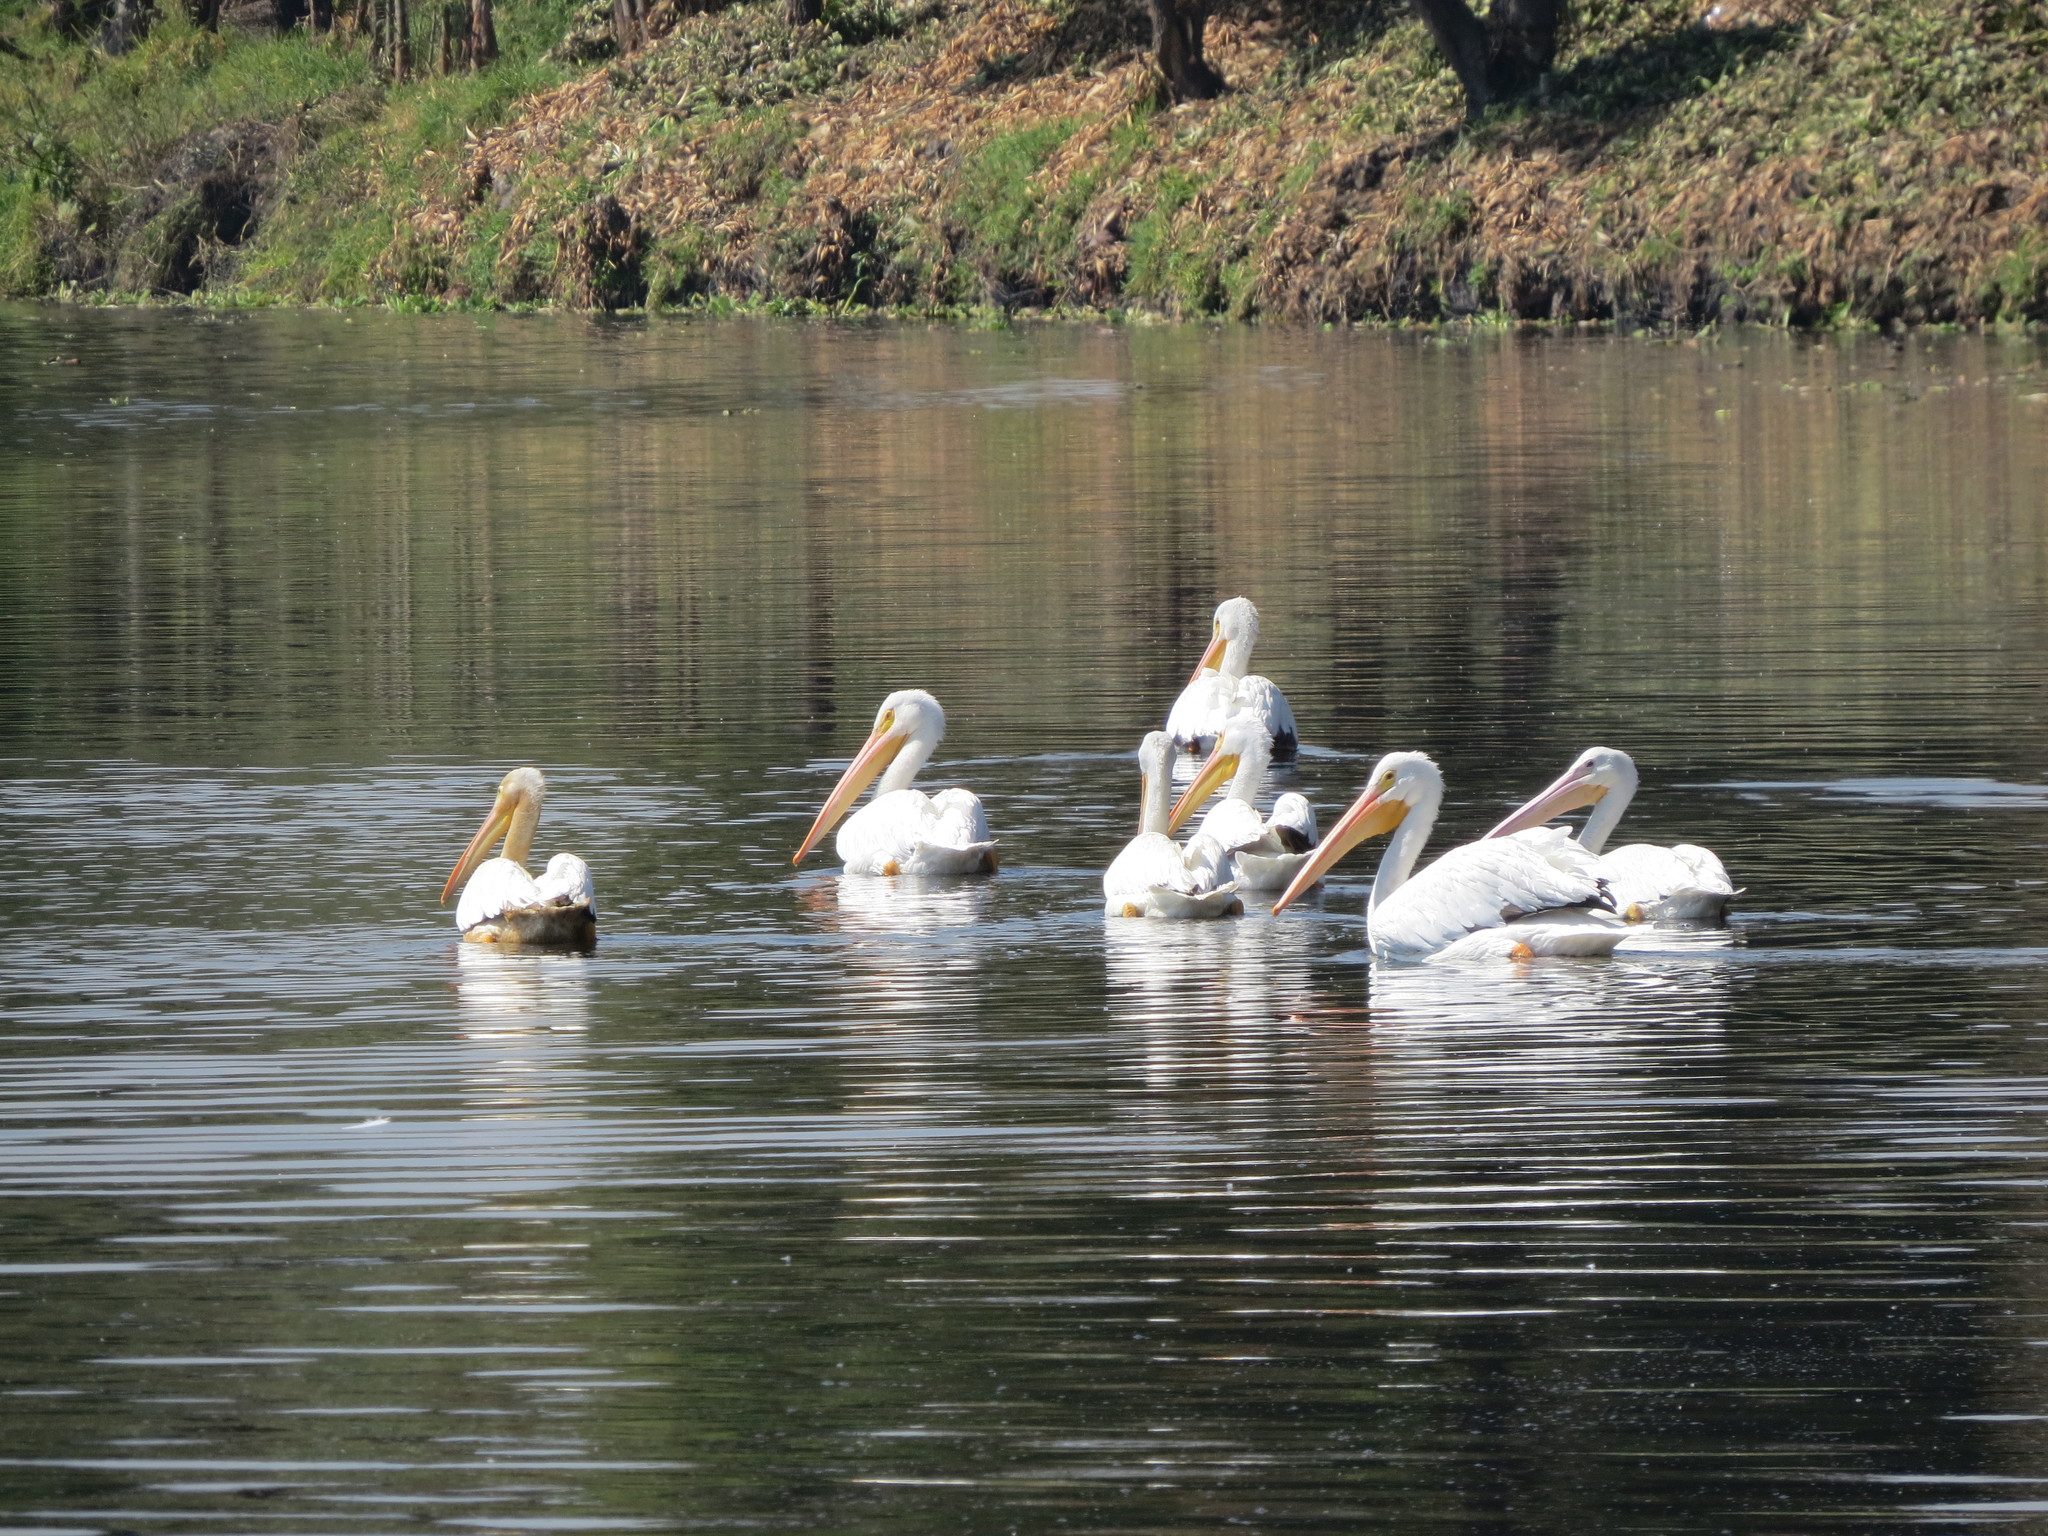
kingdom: Animalia
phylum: Chordata
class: Aves
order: Pelecaniformes
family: Pelecanidae
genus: Pelecanus
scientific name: Pelecanus erythrorhynchos
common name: American white pelican
